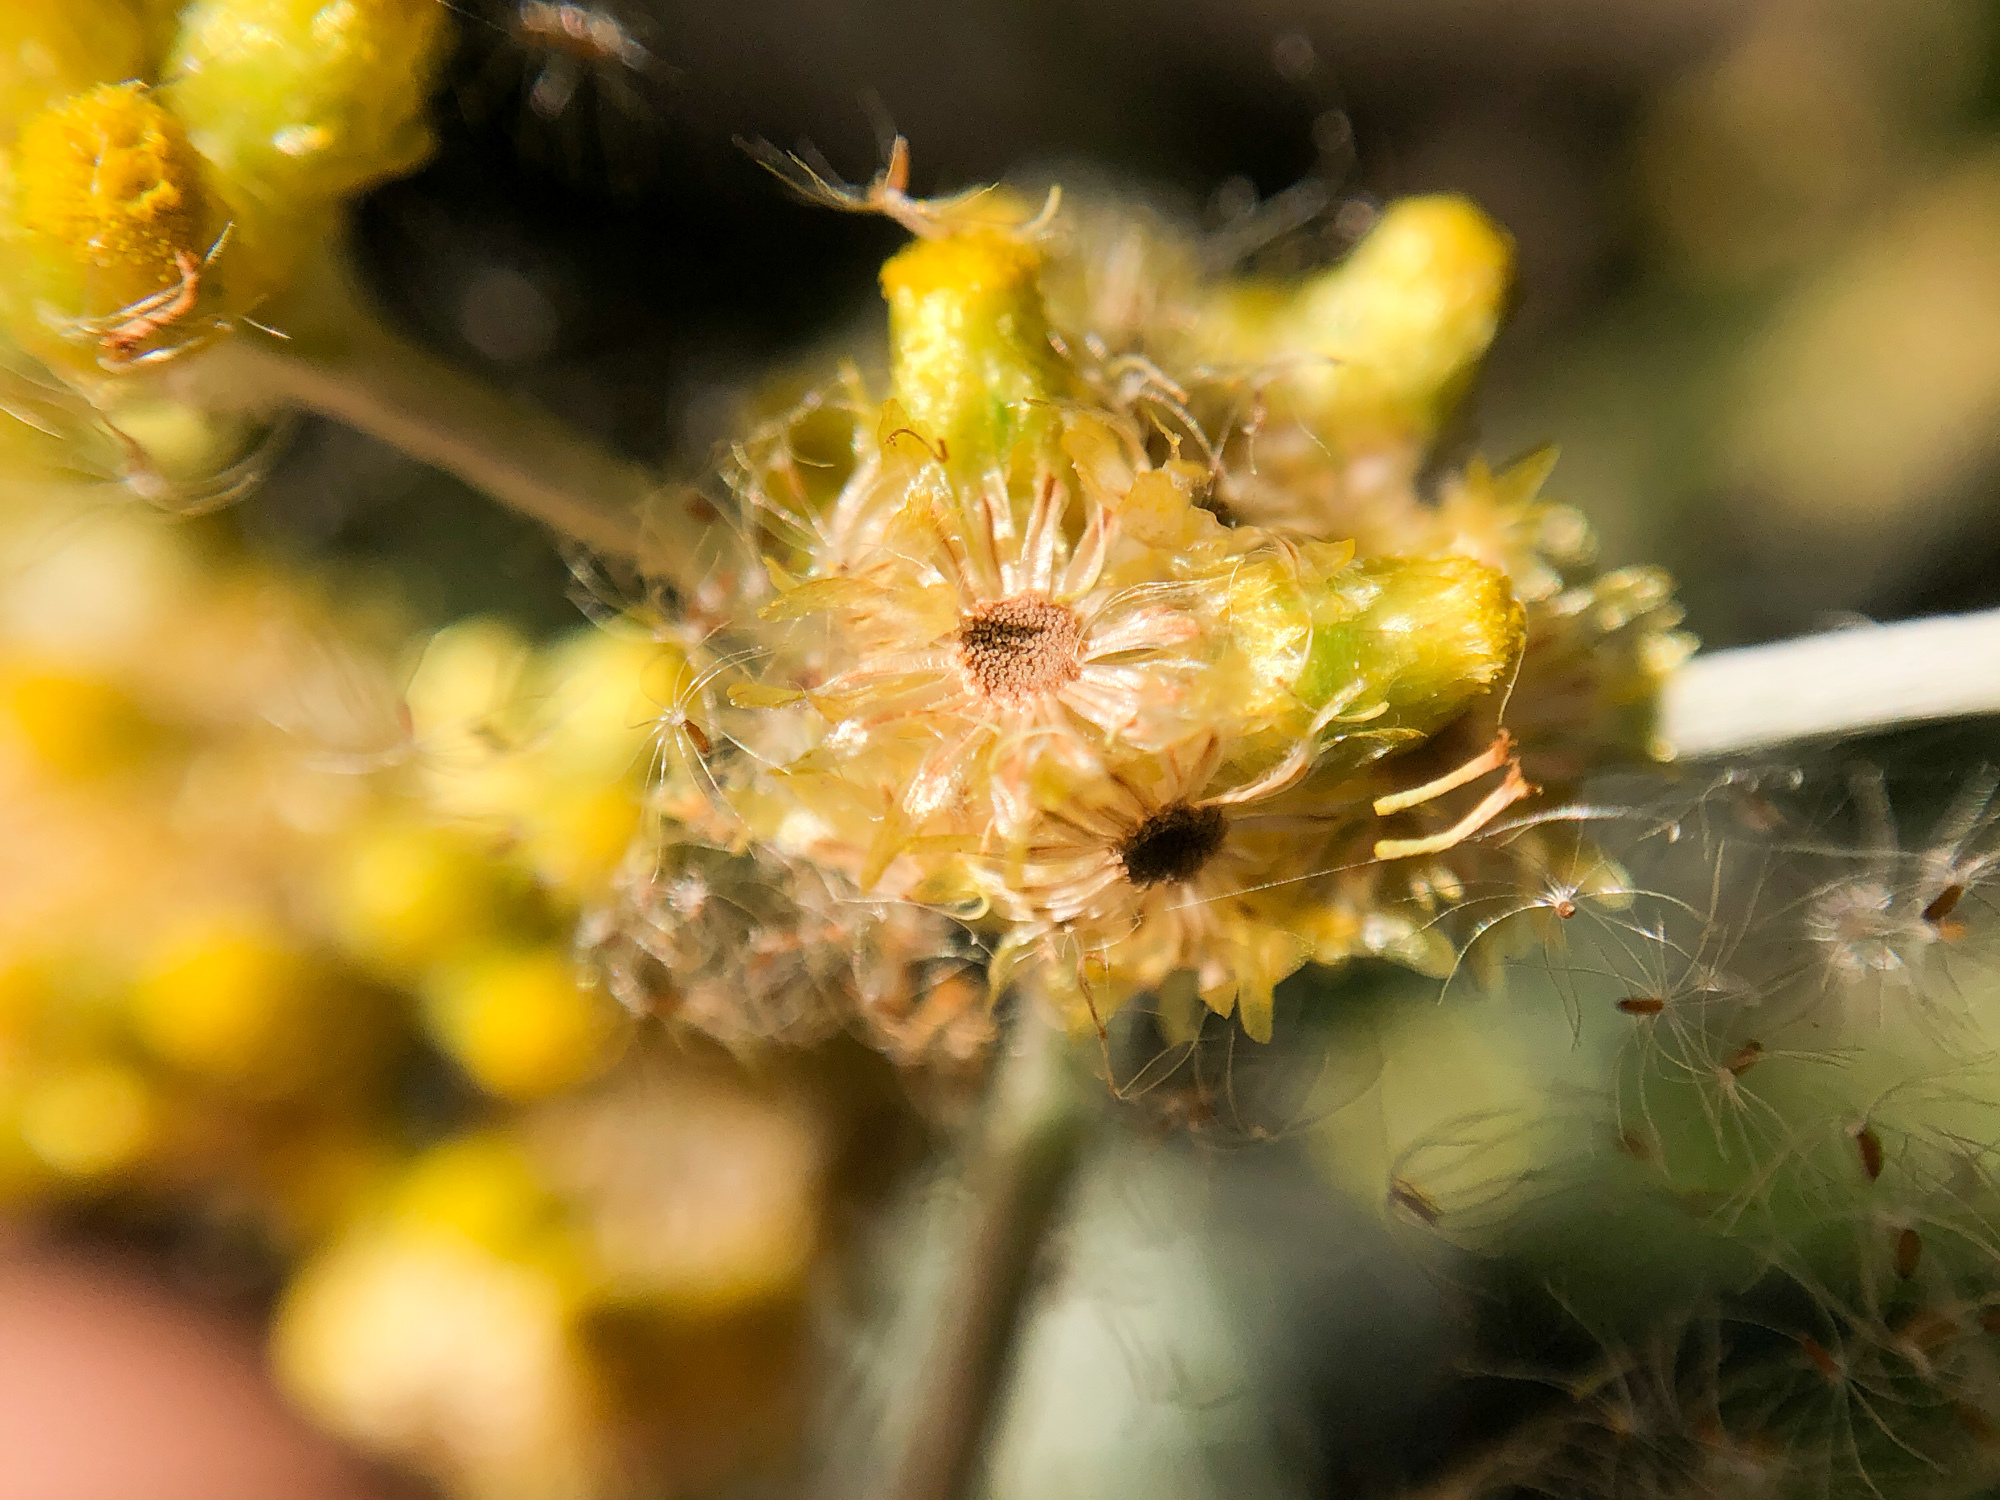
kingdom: Plantae
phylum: Tracheophyta
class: Magnoliopsida
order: Asterales
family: Asteraceae
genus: Pseudognaphalium
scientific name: Pseudognaphalium affine
